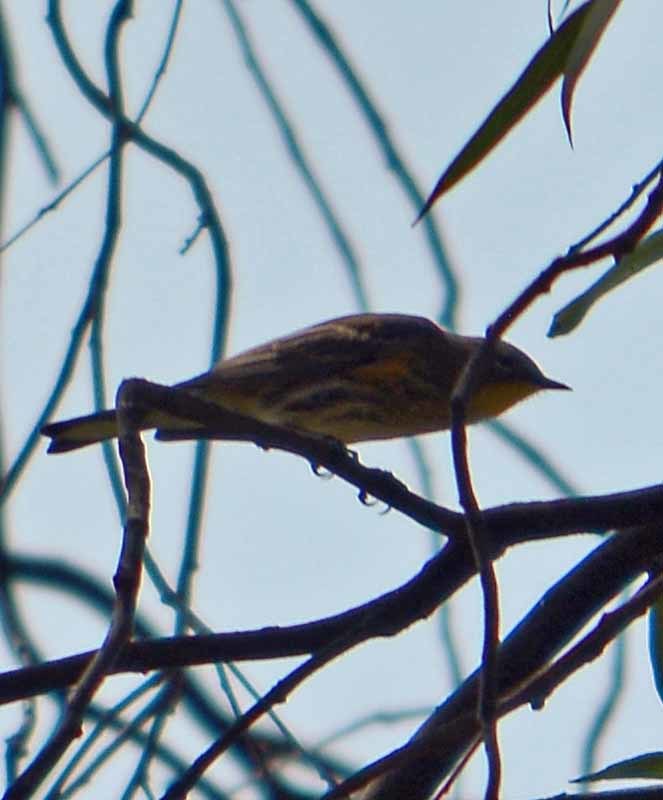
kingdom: Animalia
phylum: Chordata
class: Aves
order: Passeriformes
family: Parulidae
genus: Setophaga
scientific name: Setophaga coronata
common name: Myrtle warbler
